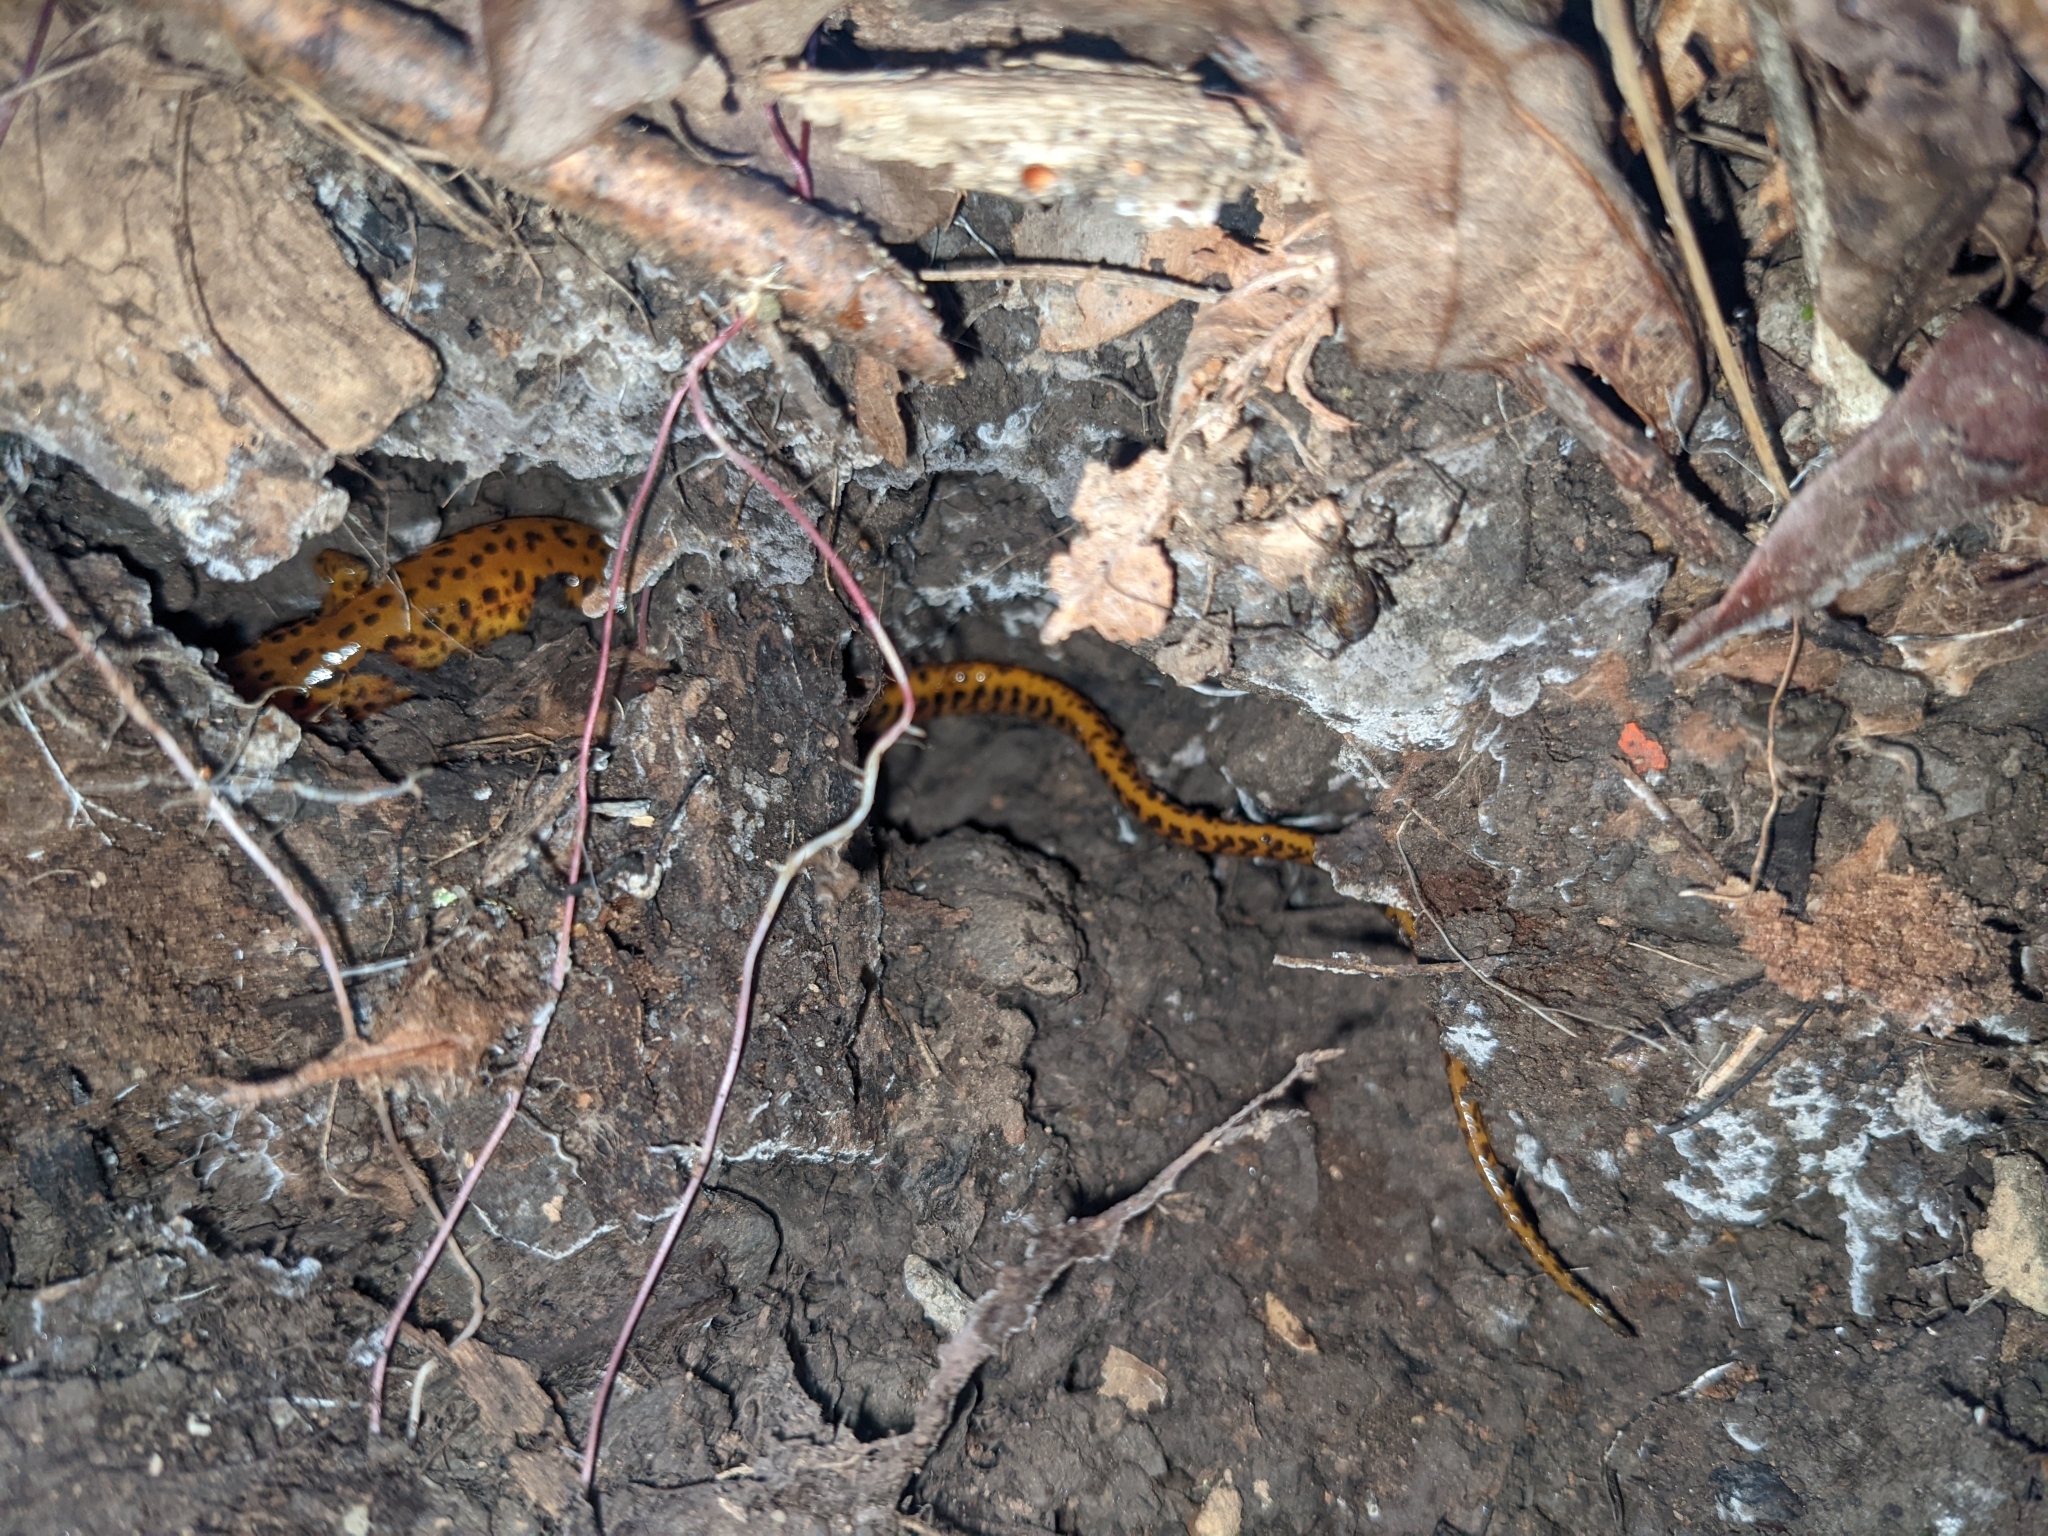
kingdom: Animalia
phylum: Chordata
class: Amphibia
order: Caudata
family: Plethodontidae
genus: Eurycea
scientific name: Eurycea longicauda
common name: Long-tailed salamander
